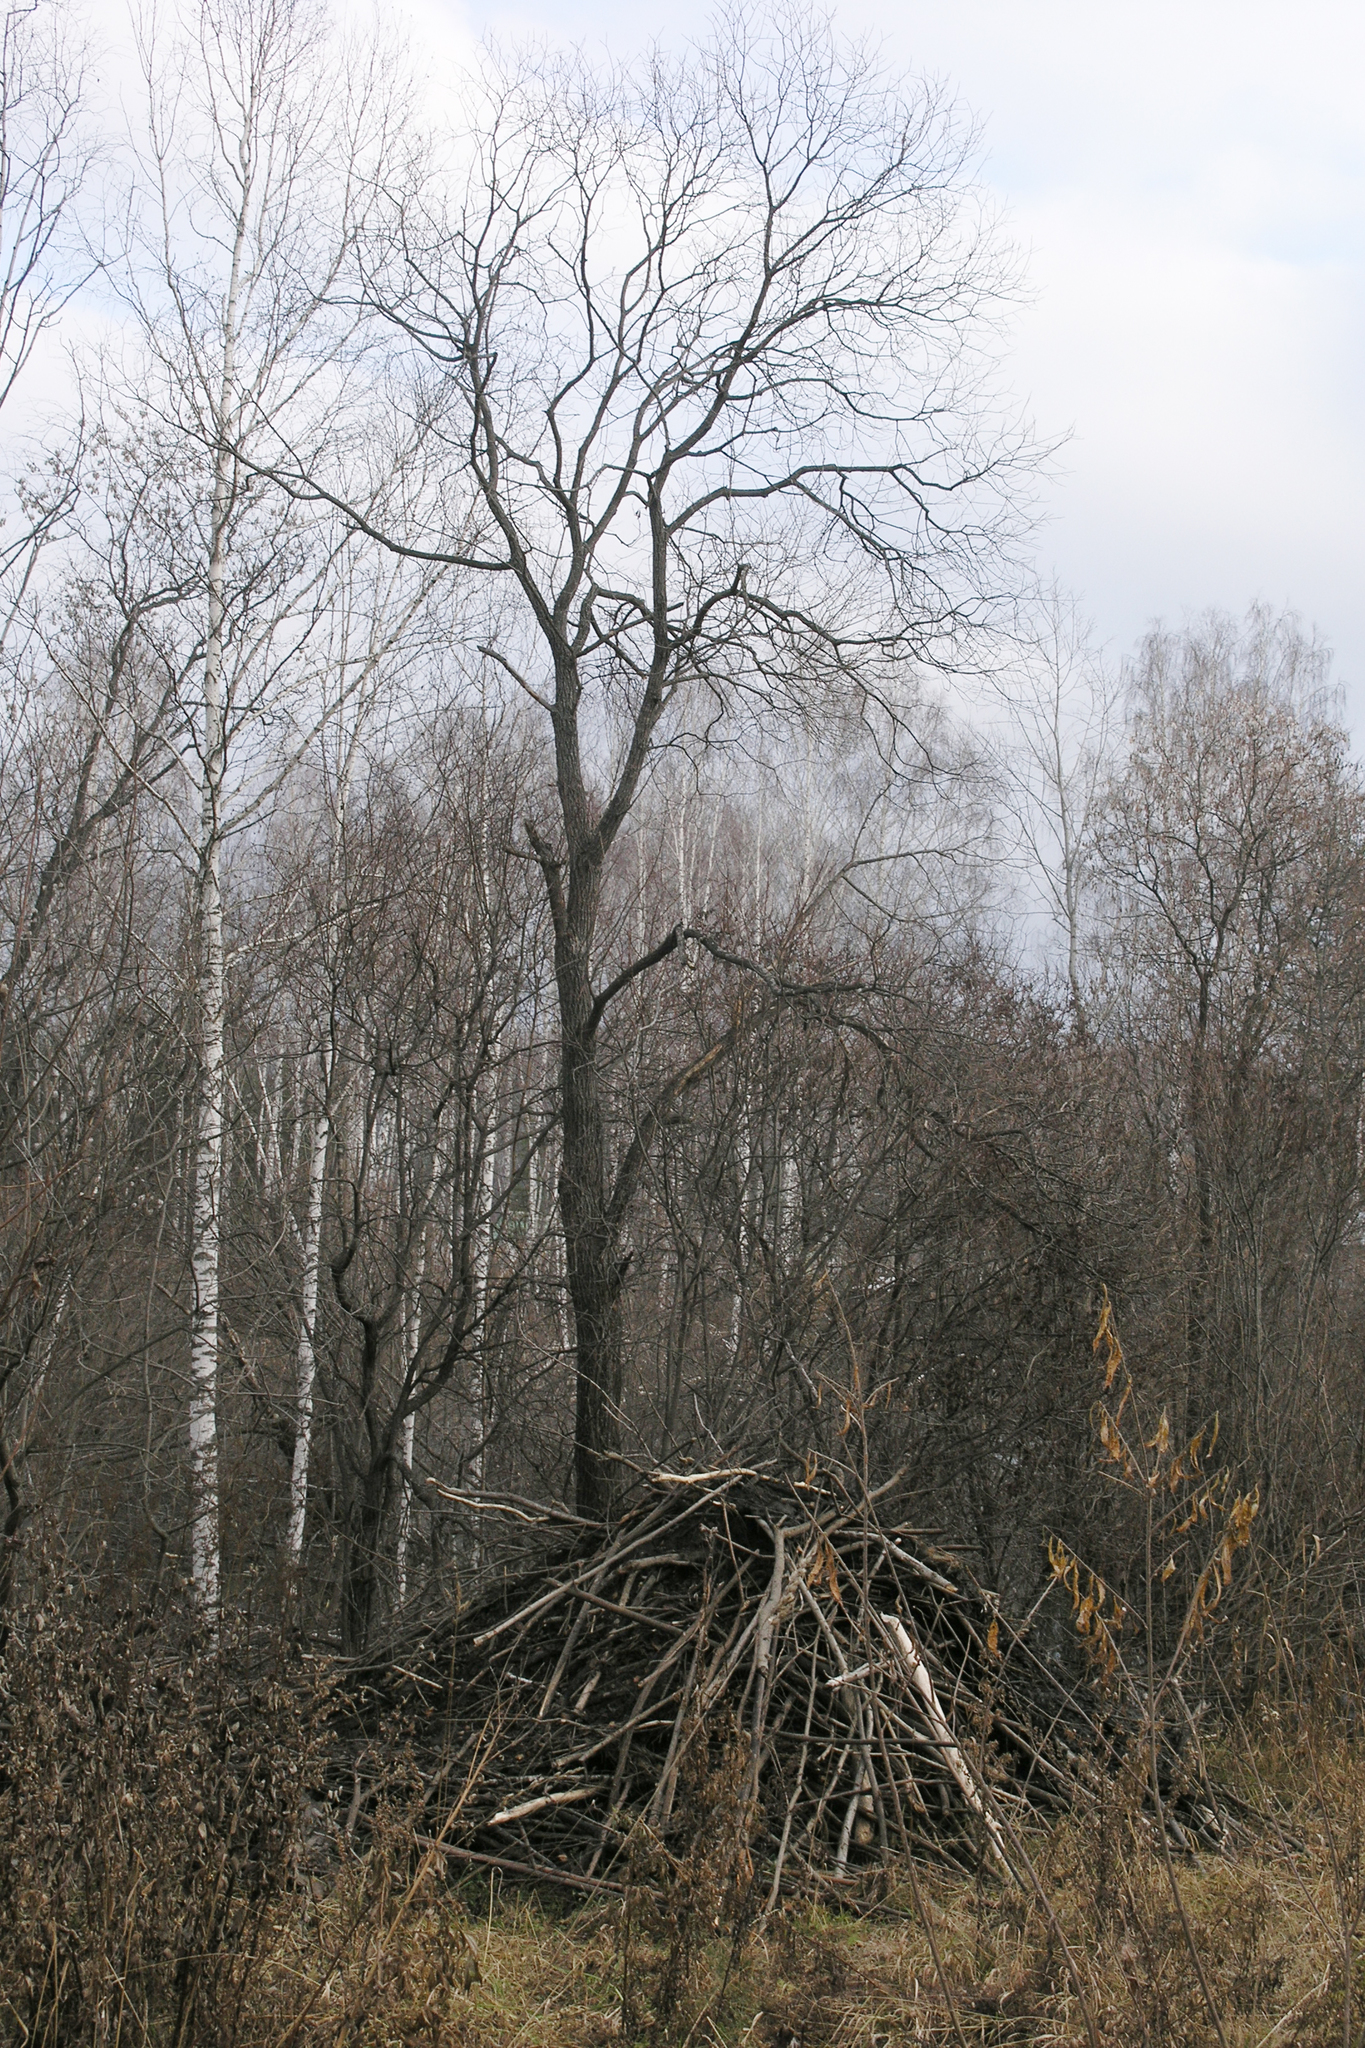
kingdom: Animalia
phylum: Chordata
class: Mammalia
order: Rodentia
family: Castoridae
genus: Castor
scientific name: Castor fiber
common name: Eurasian beaver
